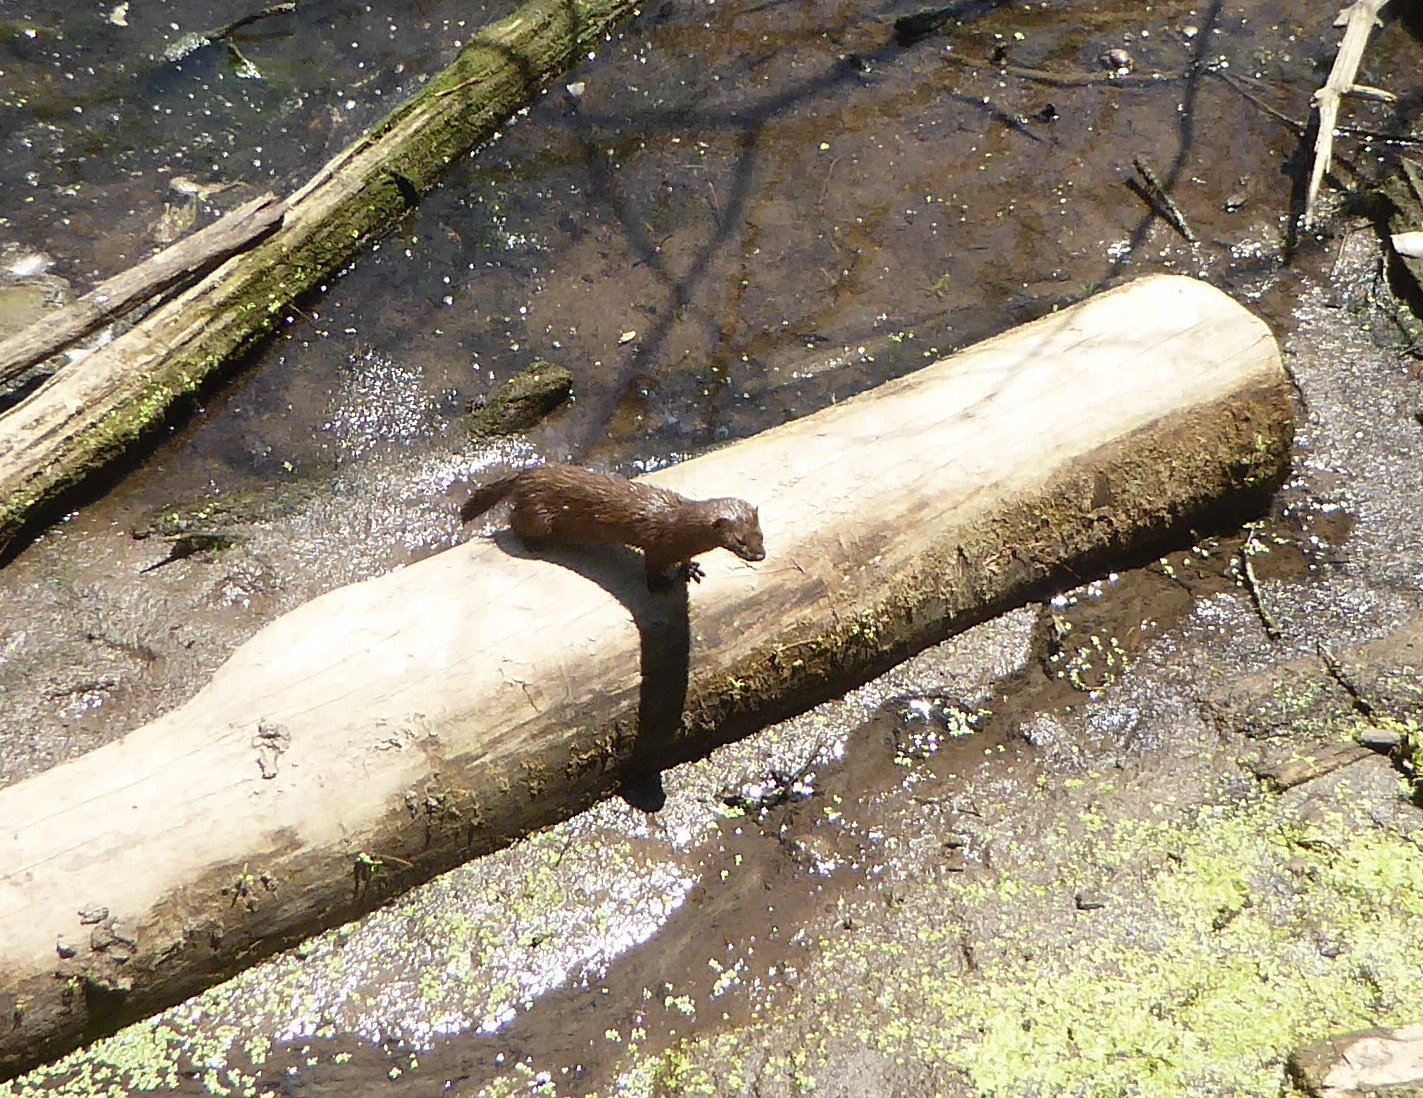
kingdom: Animalia
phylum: Chordata
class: Mammalia
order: Carnivora
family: Mustelidae
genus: Mustela
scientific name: Mustela
